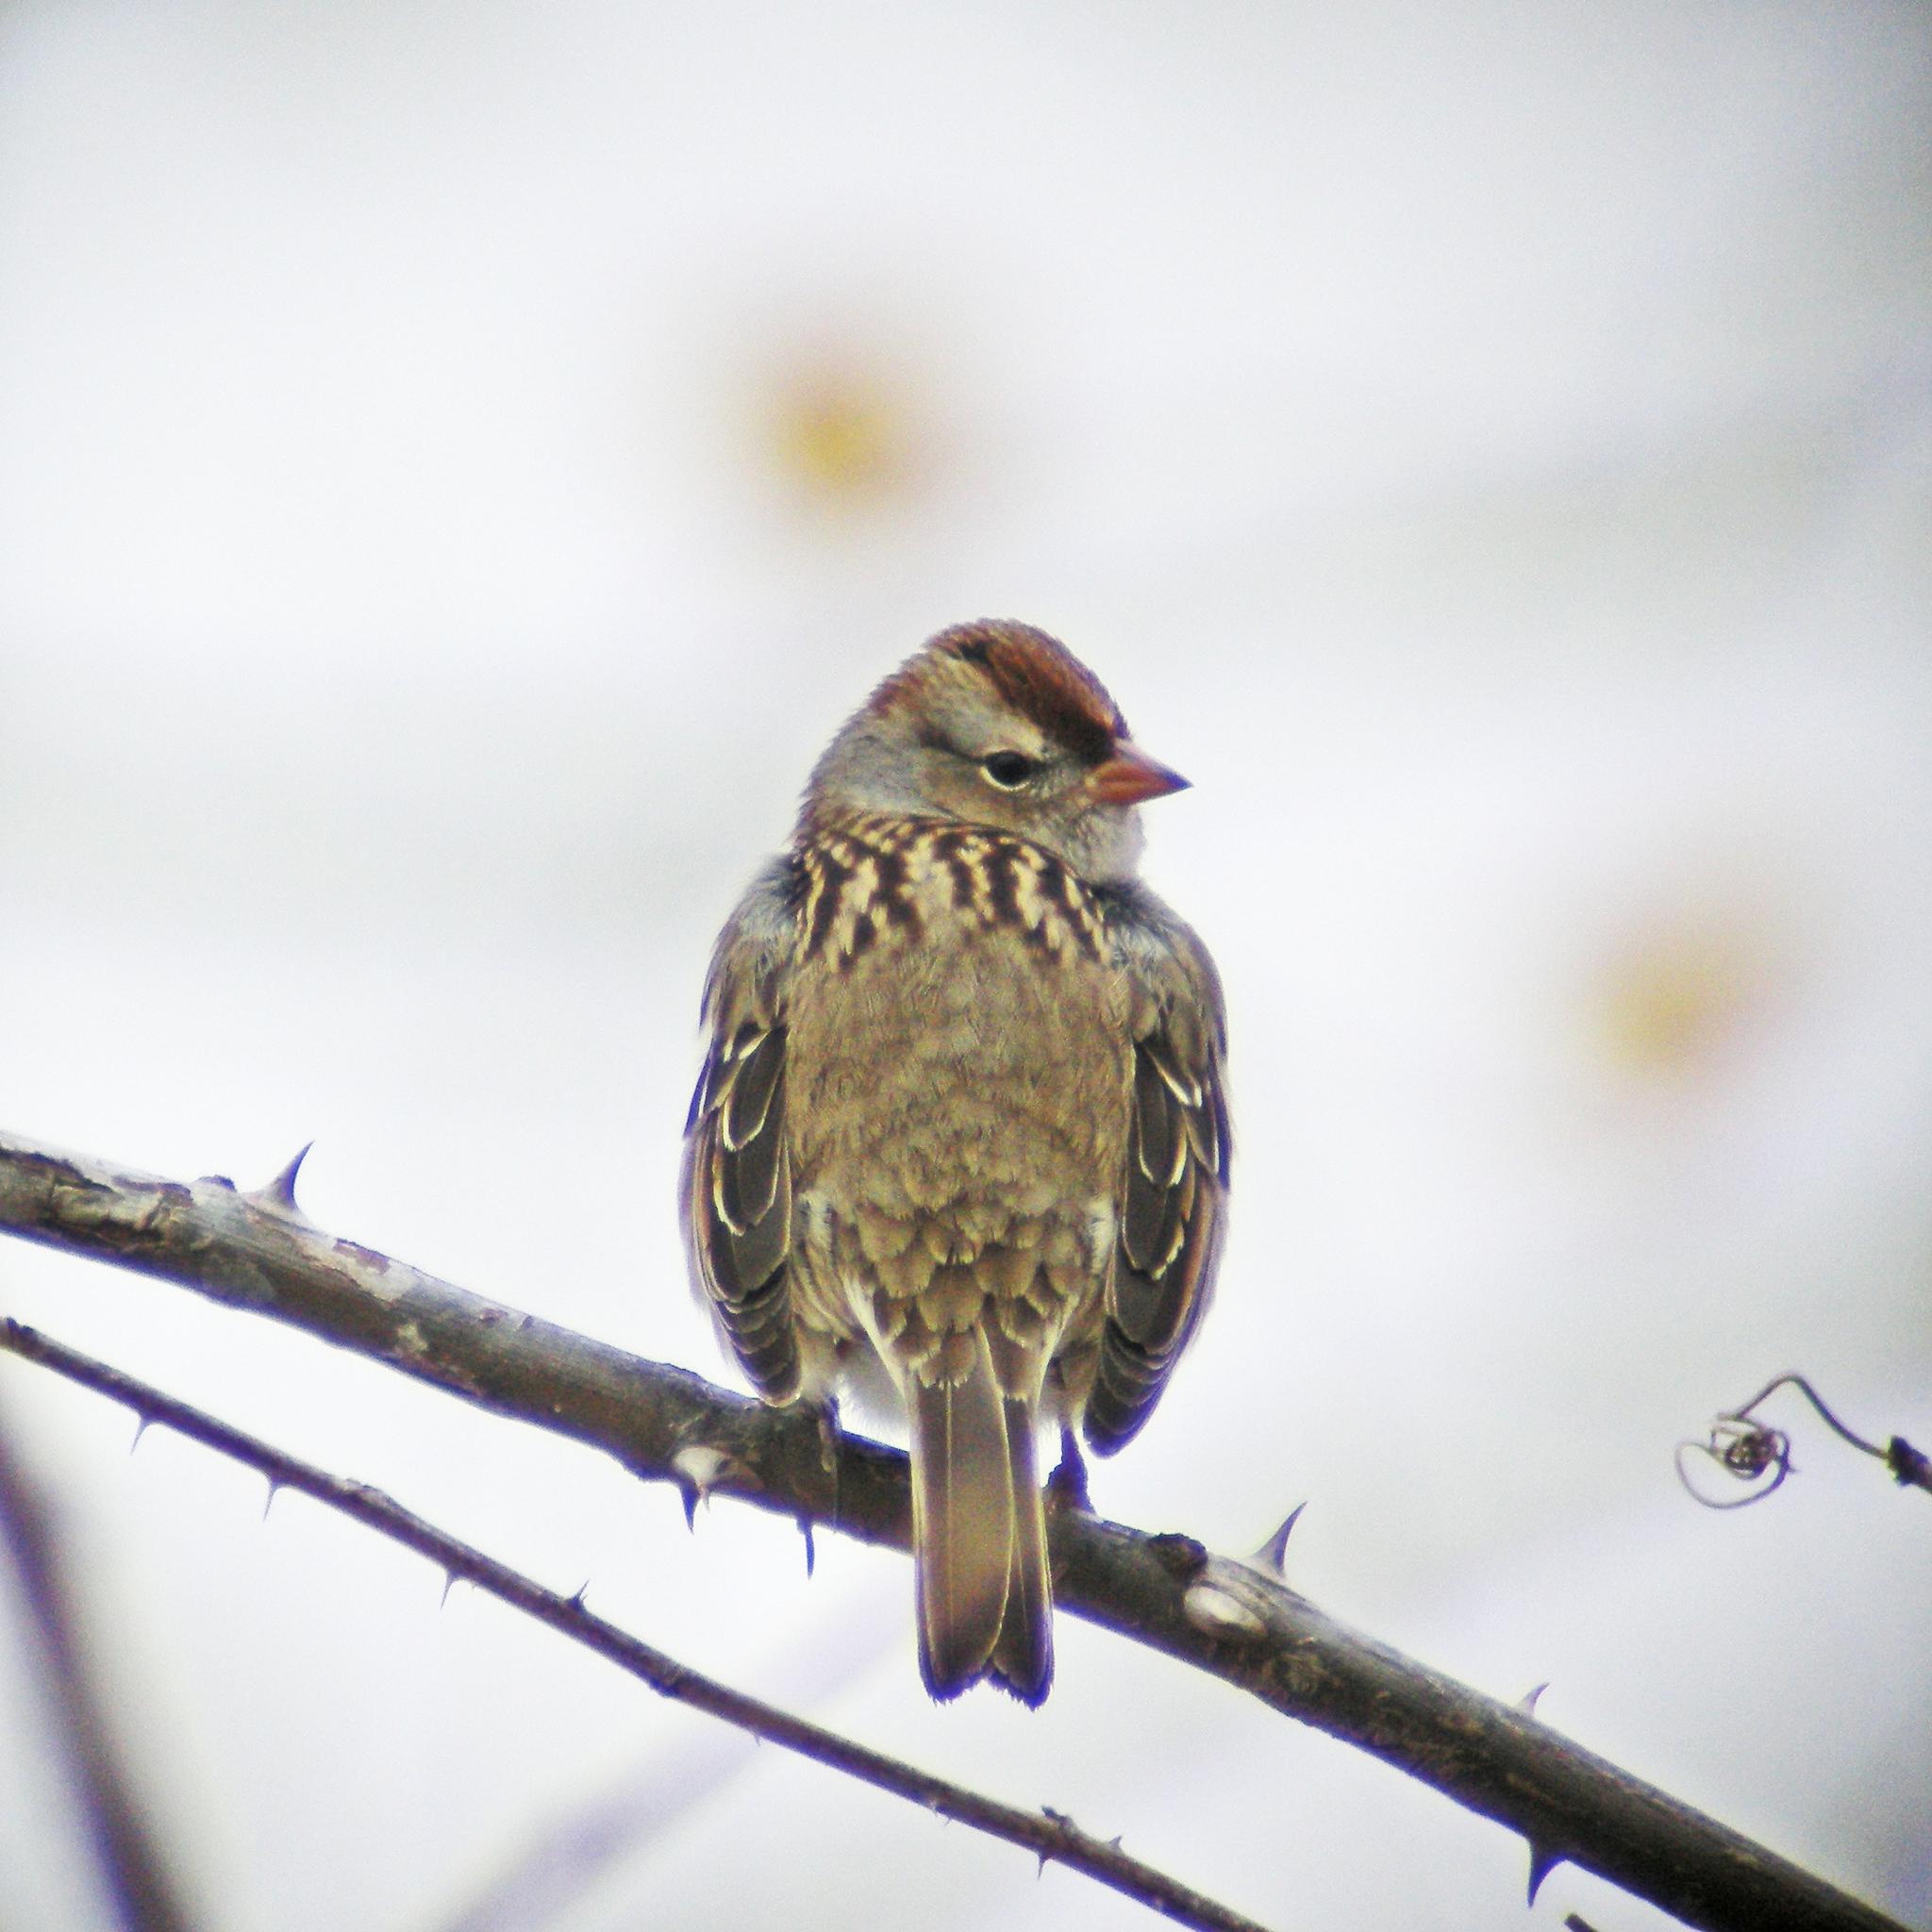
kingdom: Animalia
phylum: Chordata
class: Aves
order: Passeriformes
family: Passerellidae
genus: Zonotrichia
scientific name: Zonotrichia leucophrys
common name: White-crowned sparrow
